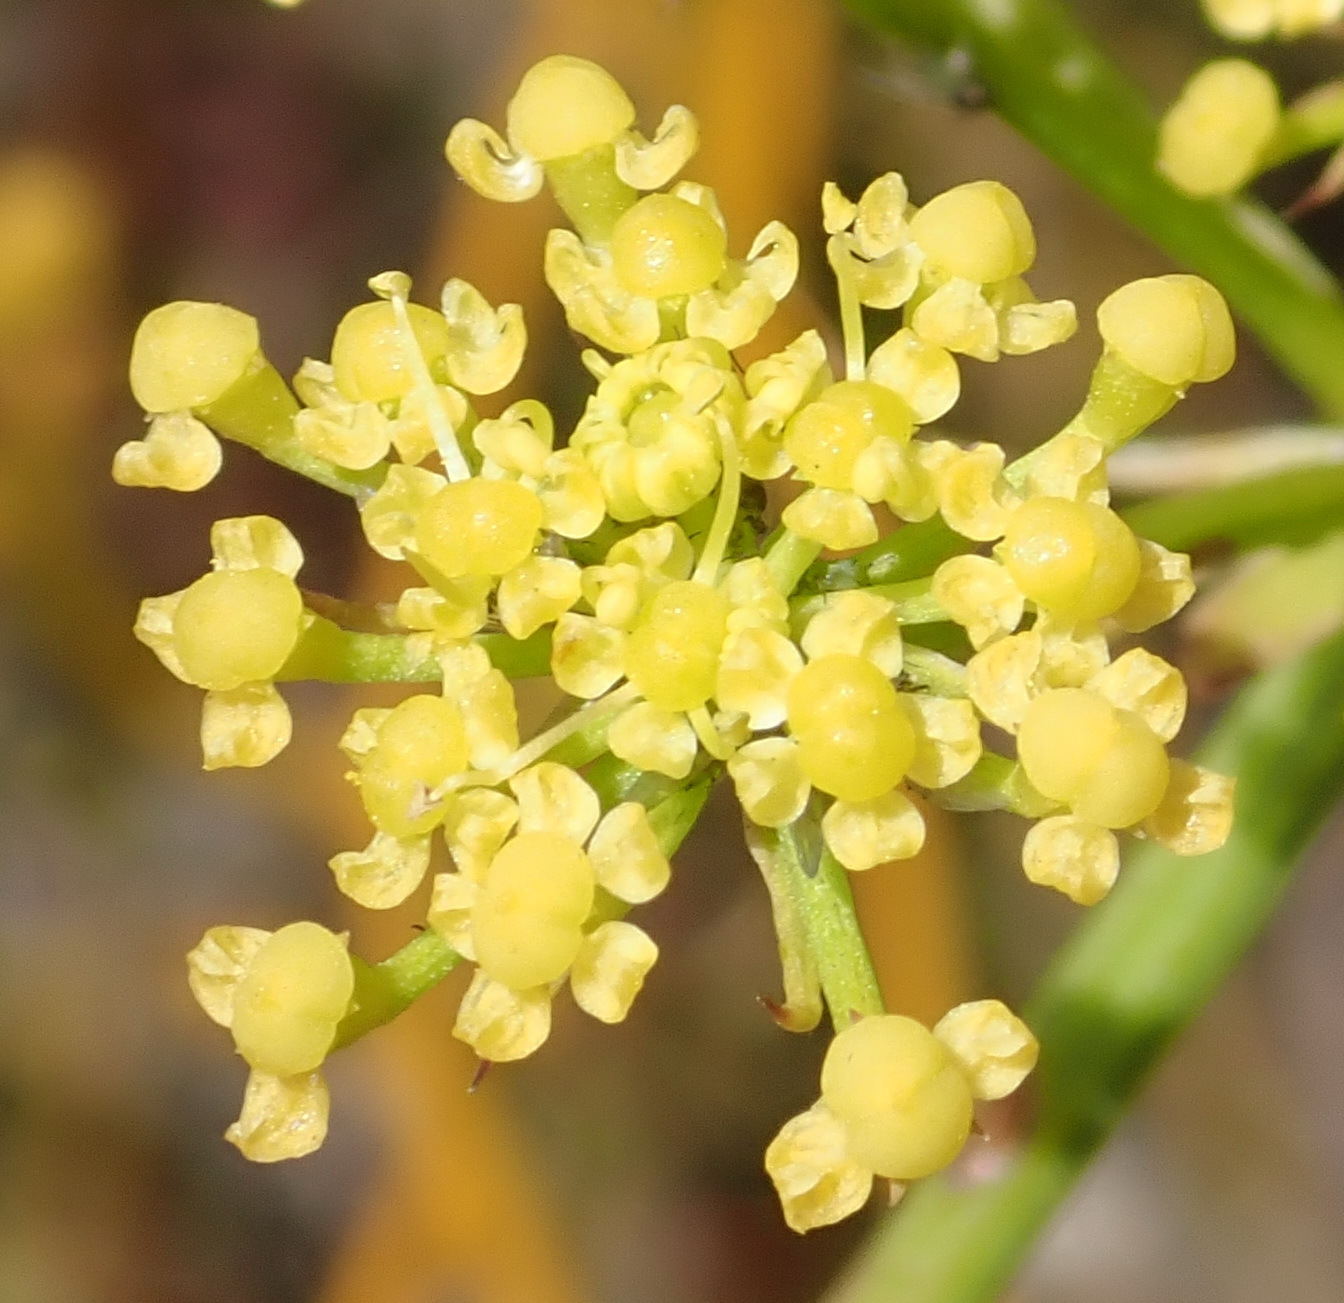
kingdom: Plantae
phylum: Tracheophyta
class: Magnoliopsida
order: Apiales
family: Apiaceae
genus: Notobubon
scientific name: Notobubon ferulaceum
